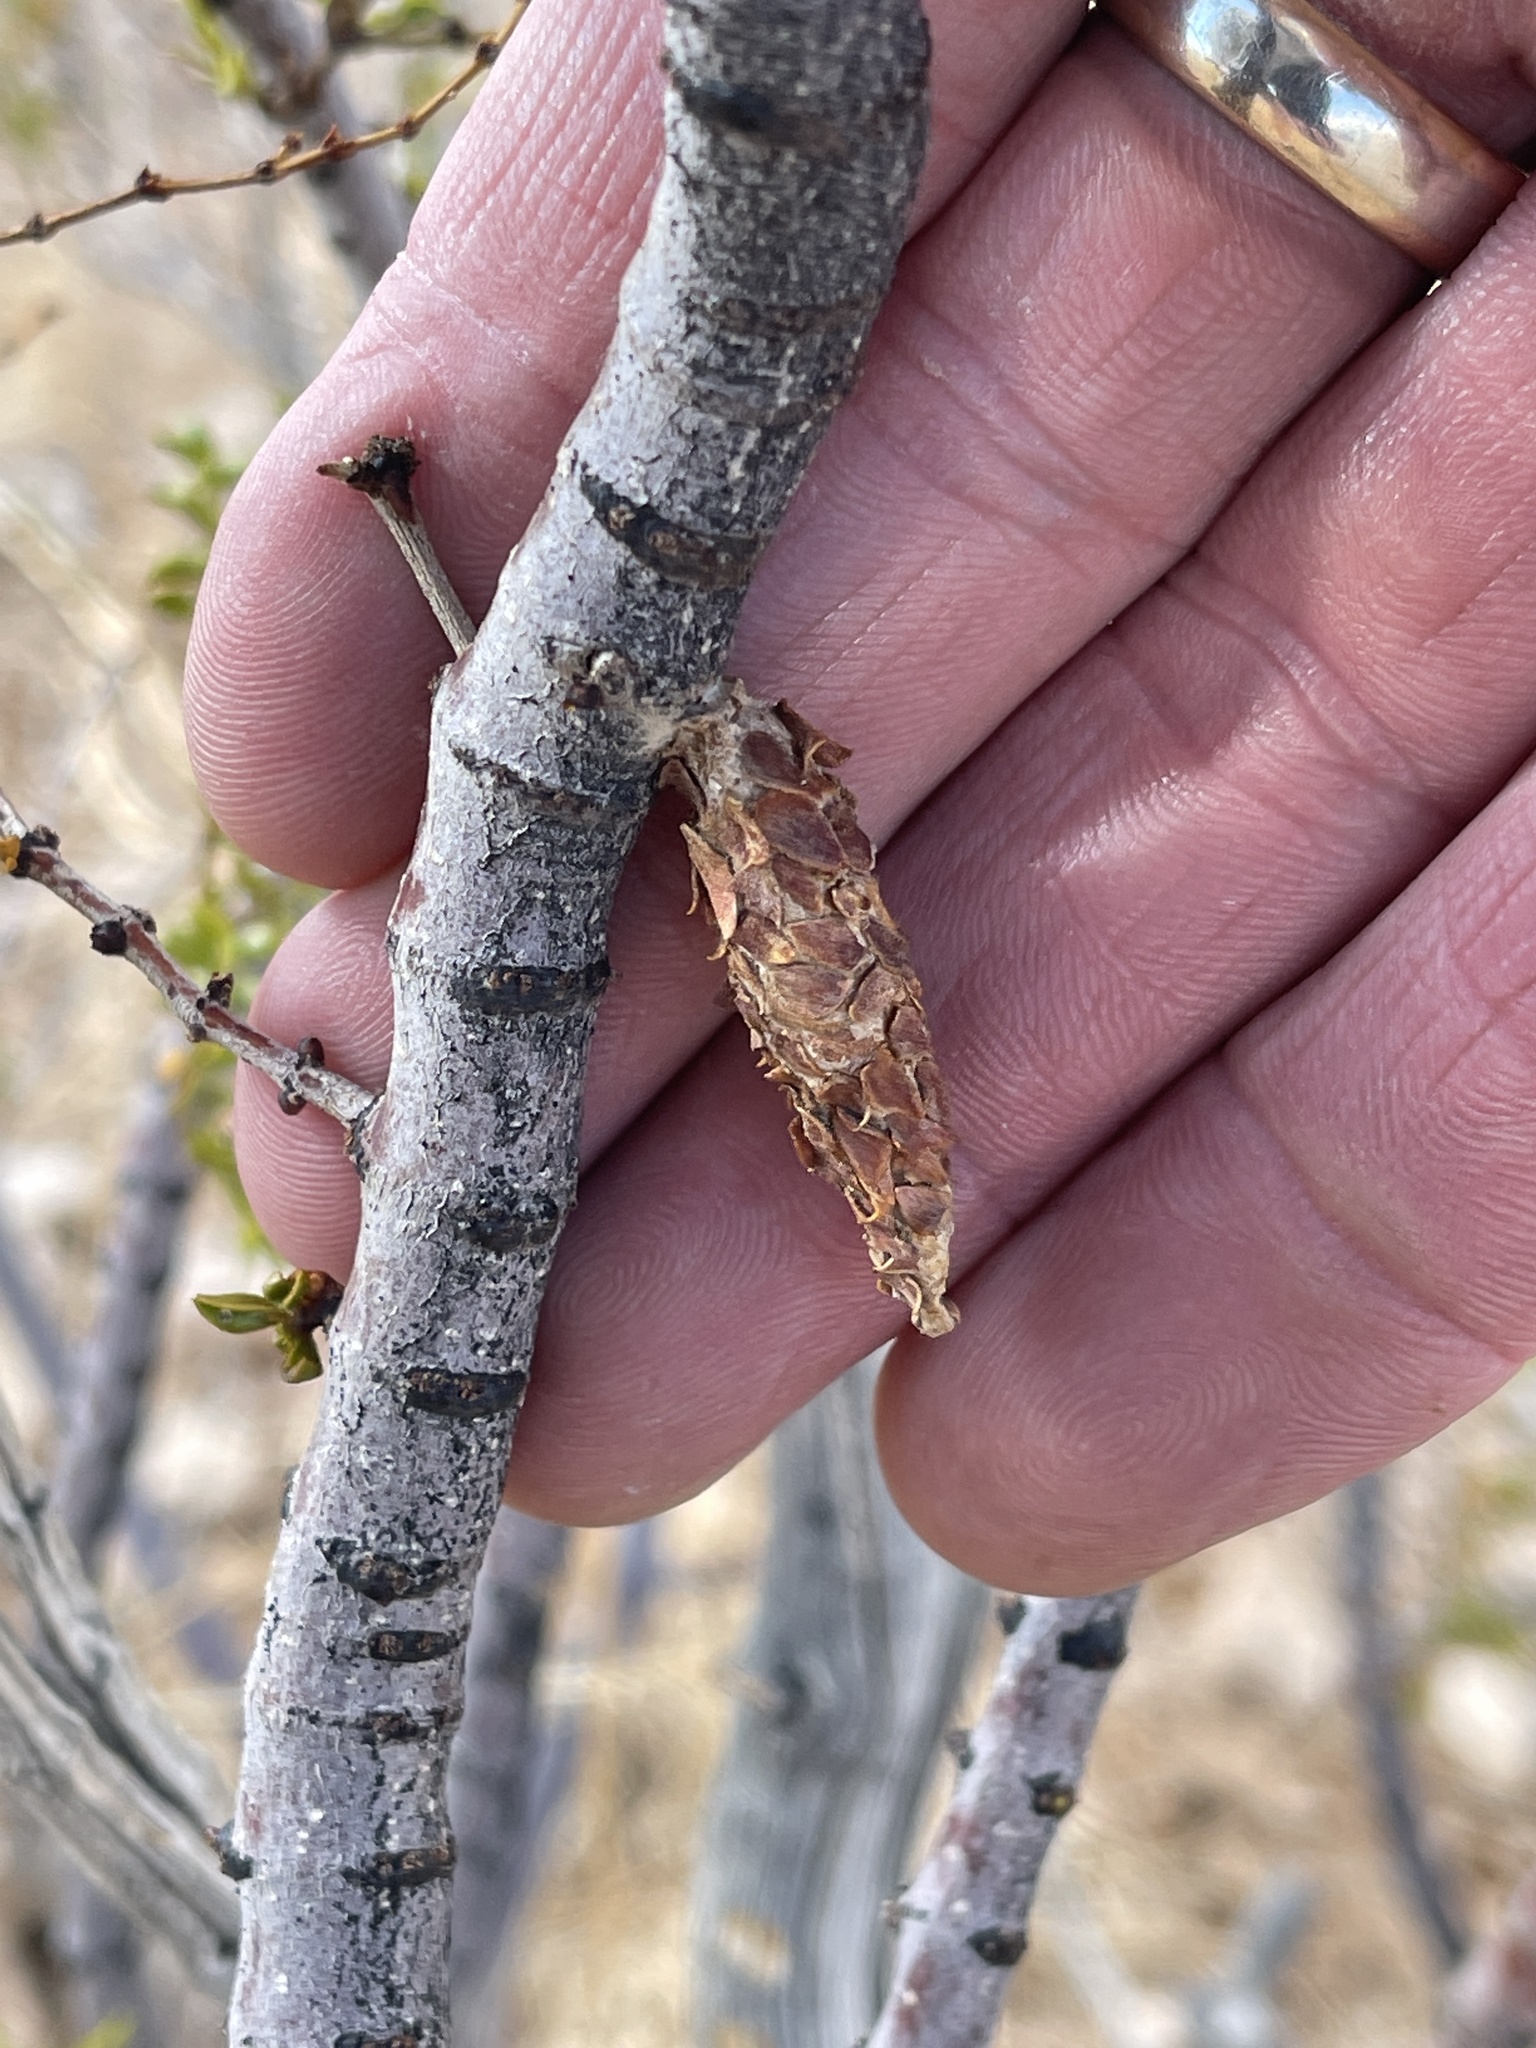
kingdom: Animalia
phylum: Arthropoda
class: Insecta
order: Lepidoptera
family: Psychidae
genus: Thyridopteryx
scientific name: Thyridopteryx meadii
